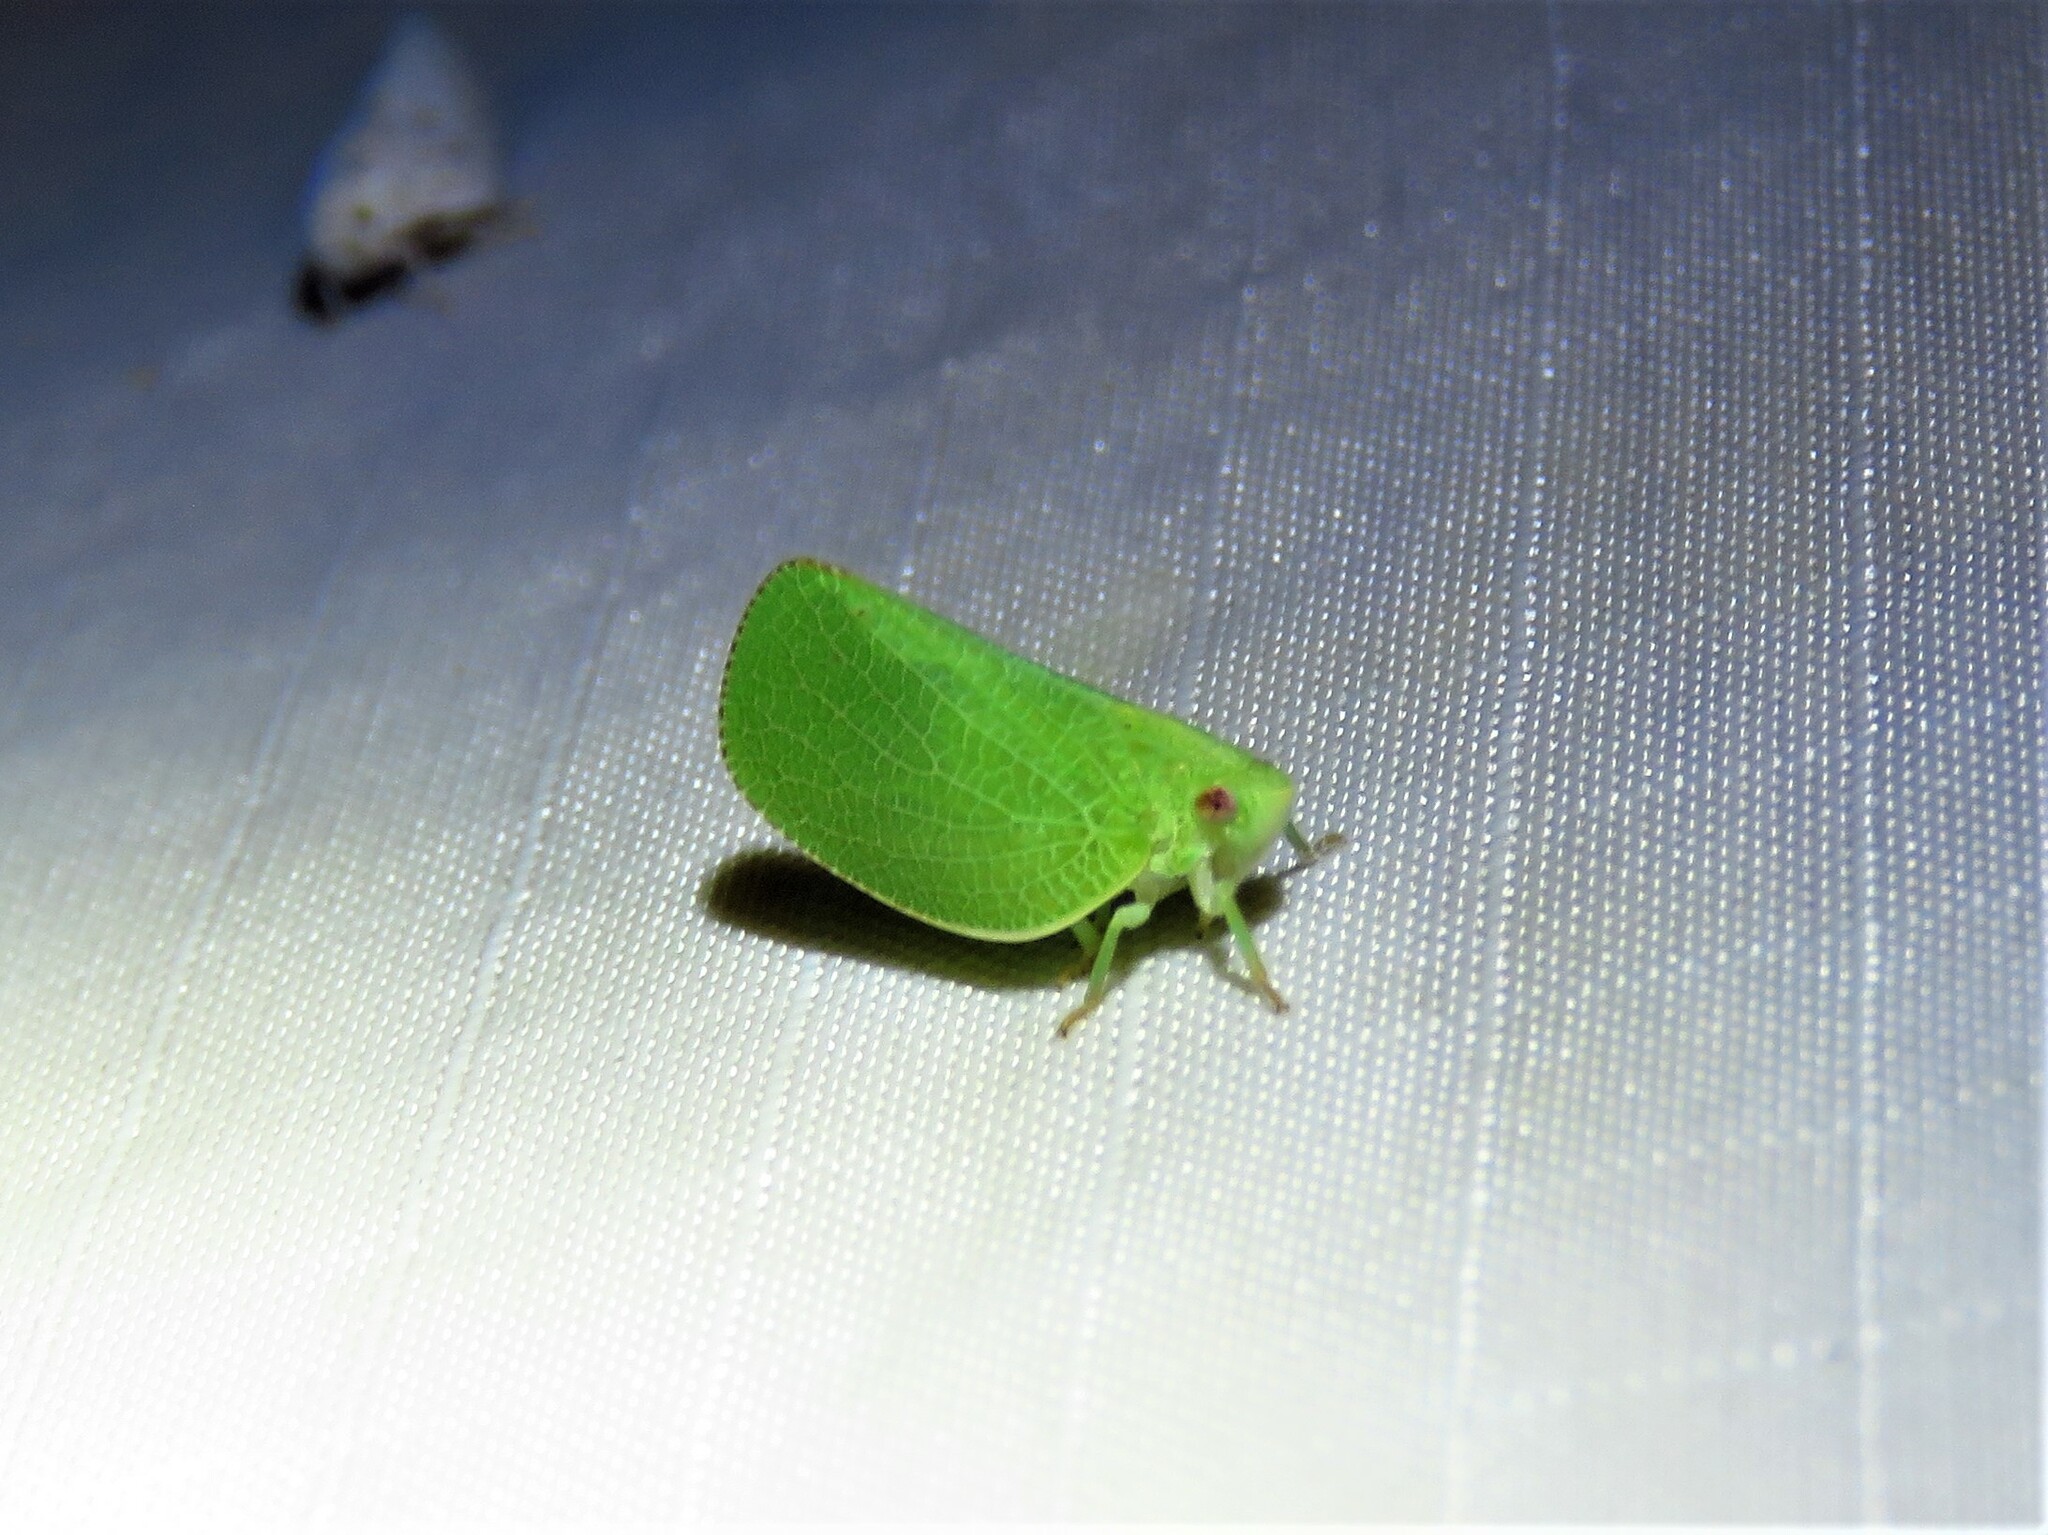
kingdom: Animalia
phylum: Arthropoda
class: Insecta
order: Hemiptera
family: Acanaloniidae
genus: Acanalonia
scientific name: Acanalonia conica
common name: Green cone-headed planthopper
